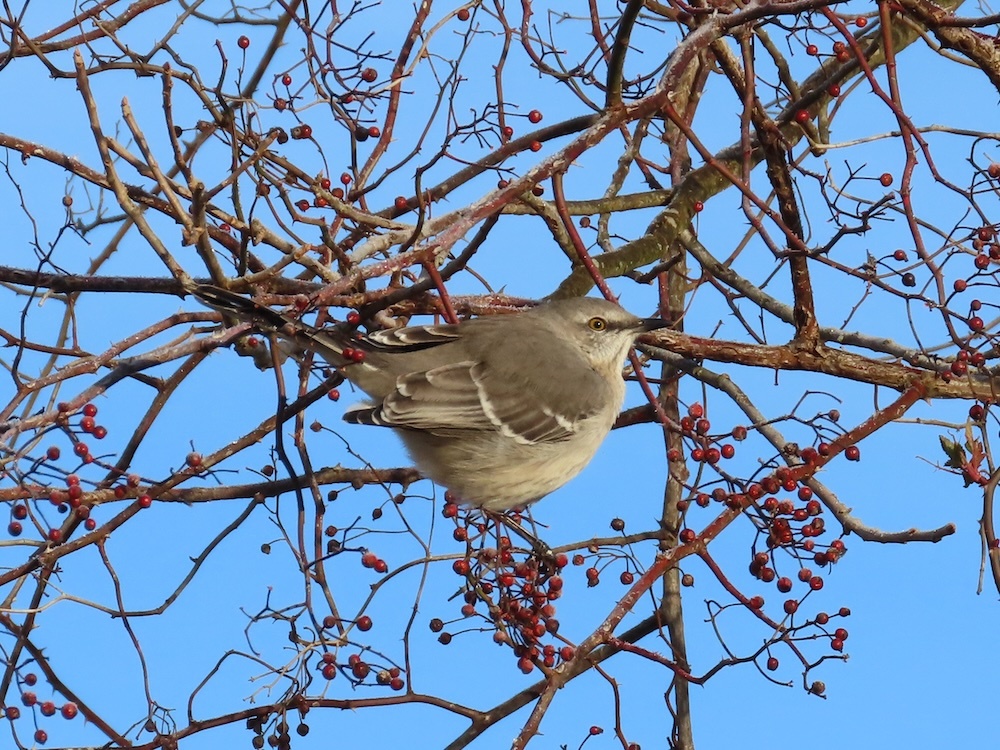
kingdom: Animalia
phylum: Chordata
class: Aves
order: Passeriformes
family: Mimidae
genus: Mimus
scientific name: Mimus polyglottos
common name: Northern mockingbird
